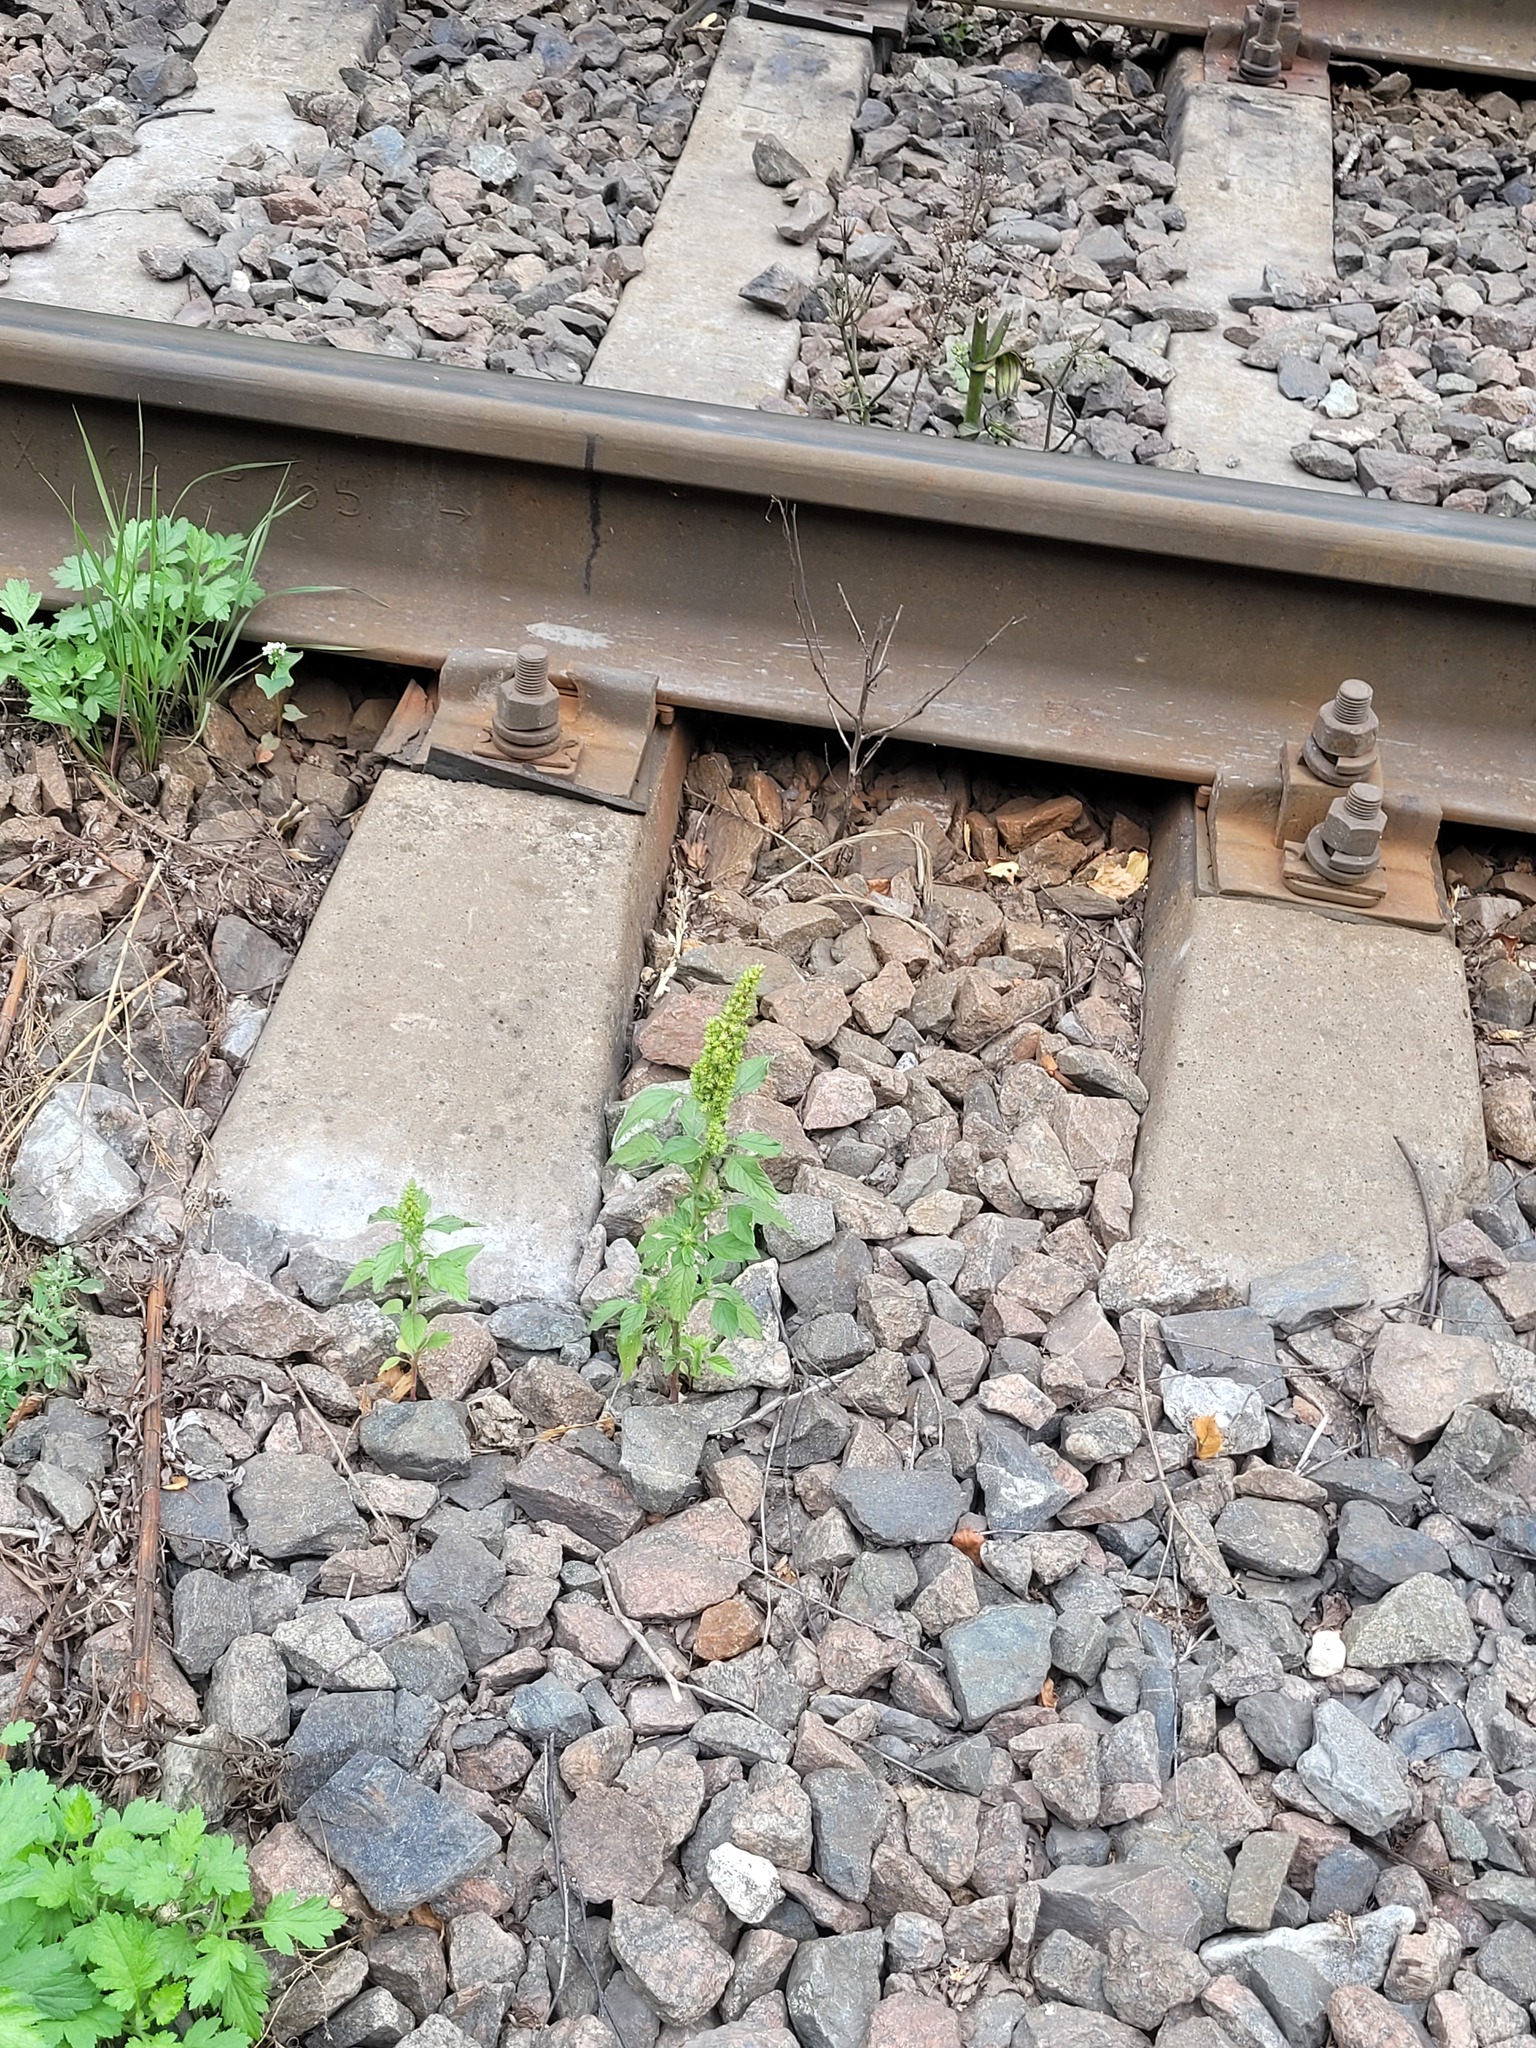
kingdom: Plantae
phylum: Tracheophyta
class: Magnoliopsida
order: Caryophyllales
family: Amaranthaceae
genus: Amaranthus
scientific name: Amaranthus retroflexus
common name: Redroot amaranth
